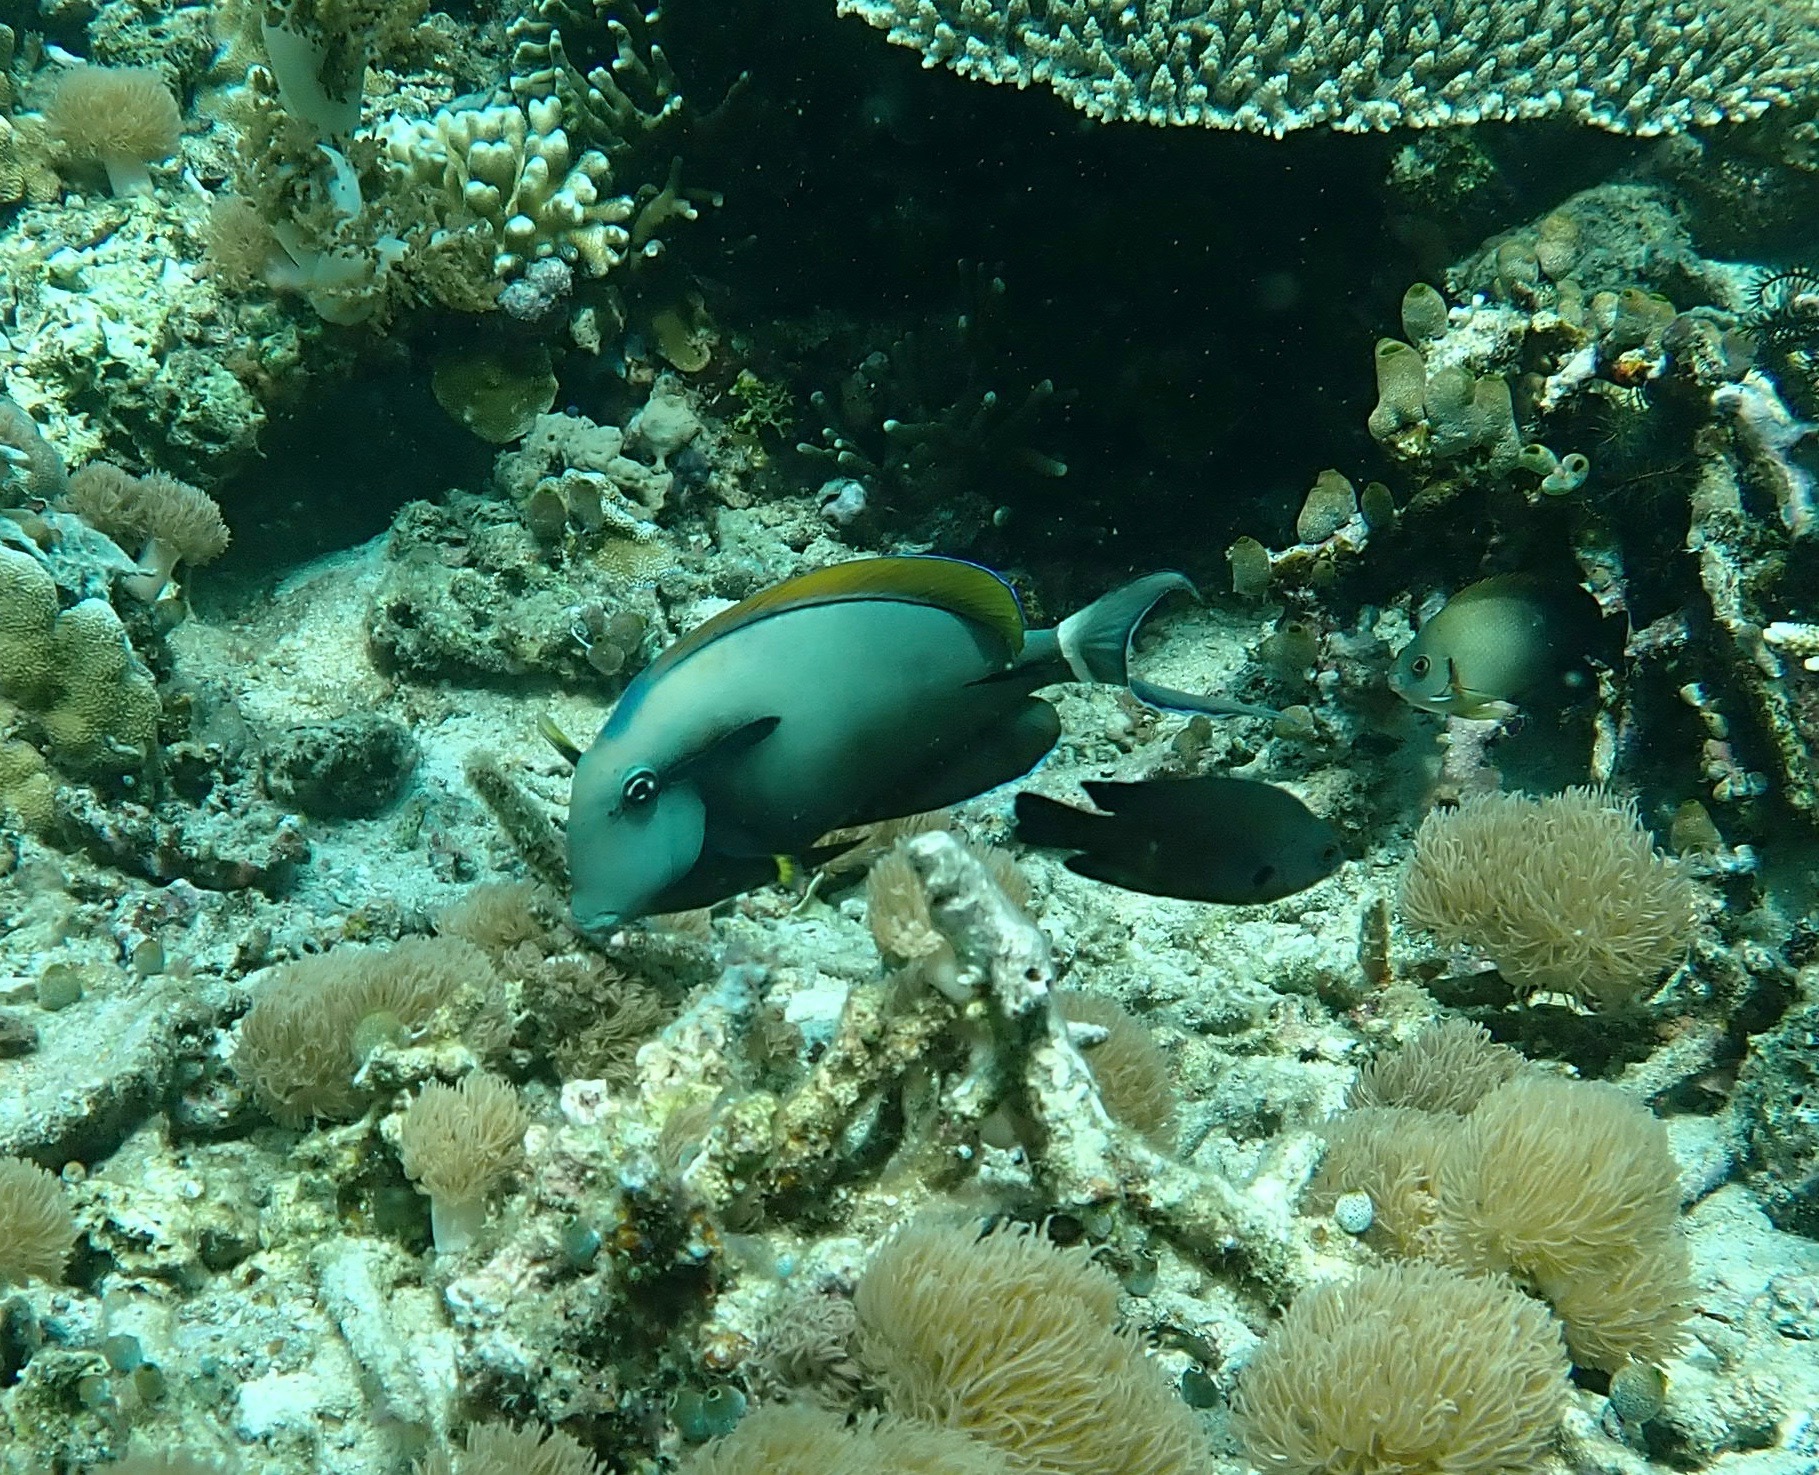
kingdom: Animalia
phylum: Chordata
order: Perciformes
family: Acanthuridae
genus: Acanthurus
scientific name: Acanthurus nigricauda
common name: Black-barred surgeonfish
